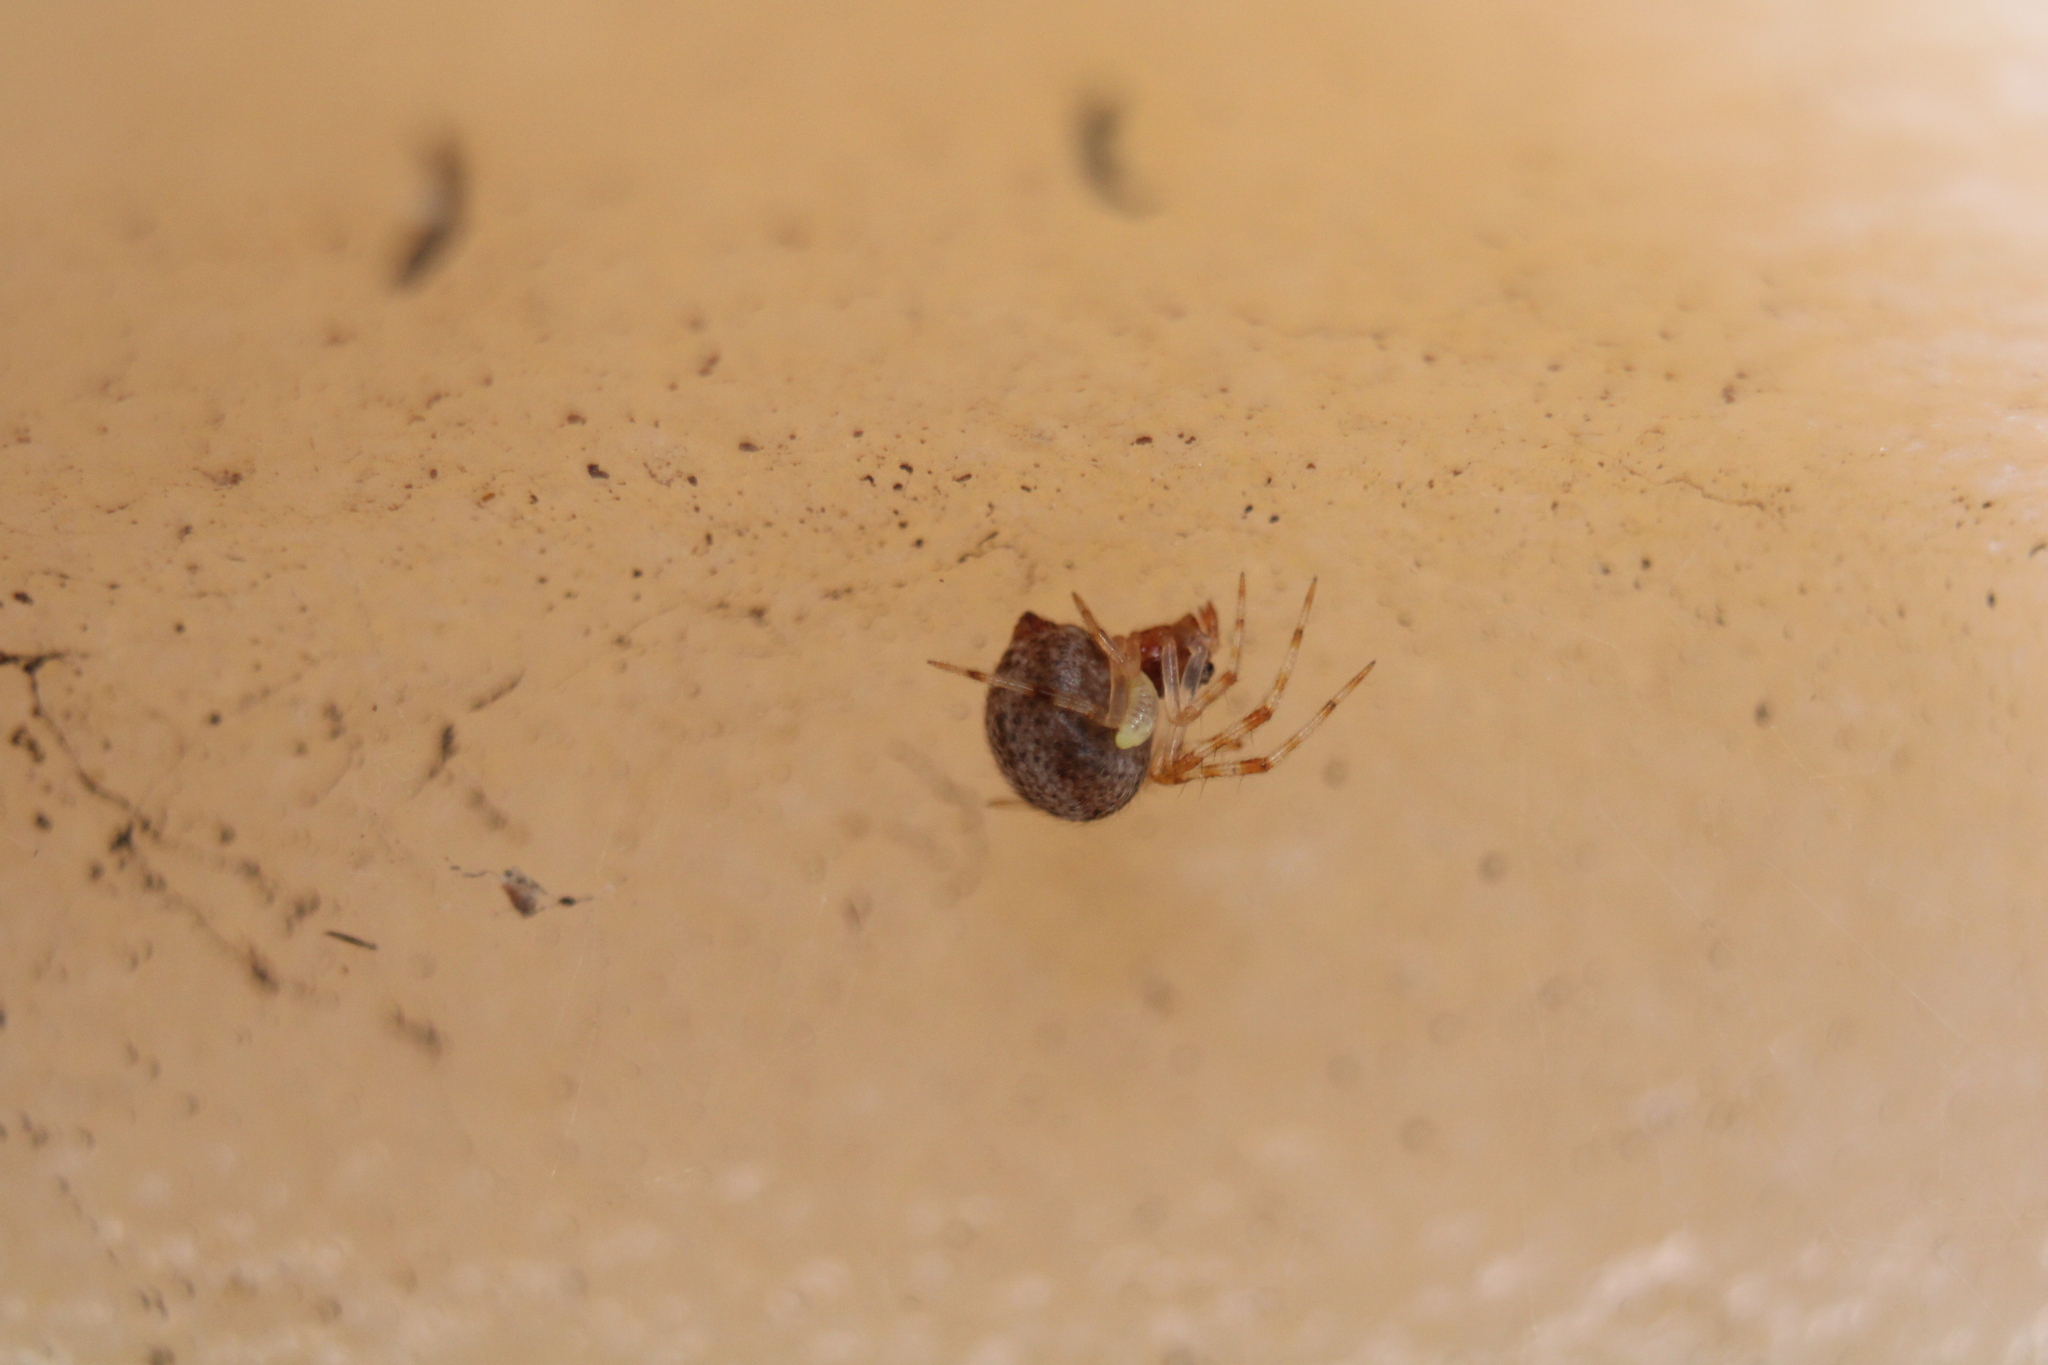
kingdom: Animalia
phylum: Arthropoda
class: Arachnida
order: Araneae
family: Theridiidae
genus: Parasteatoda
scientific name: Parasteatoda tepidariorum
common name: Common house spider
